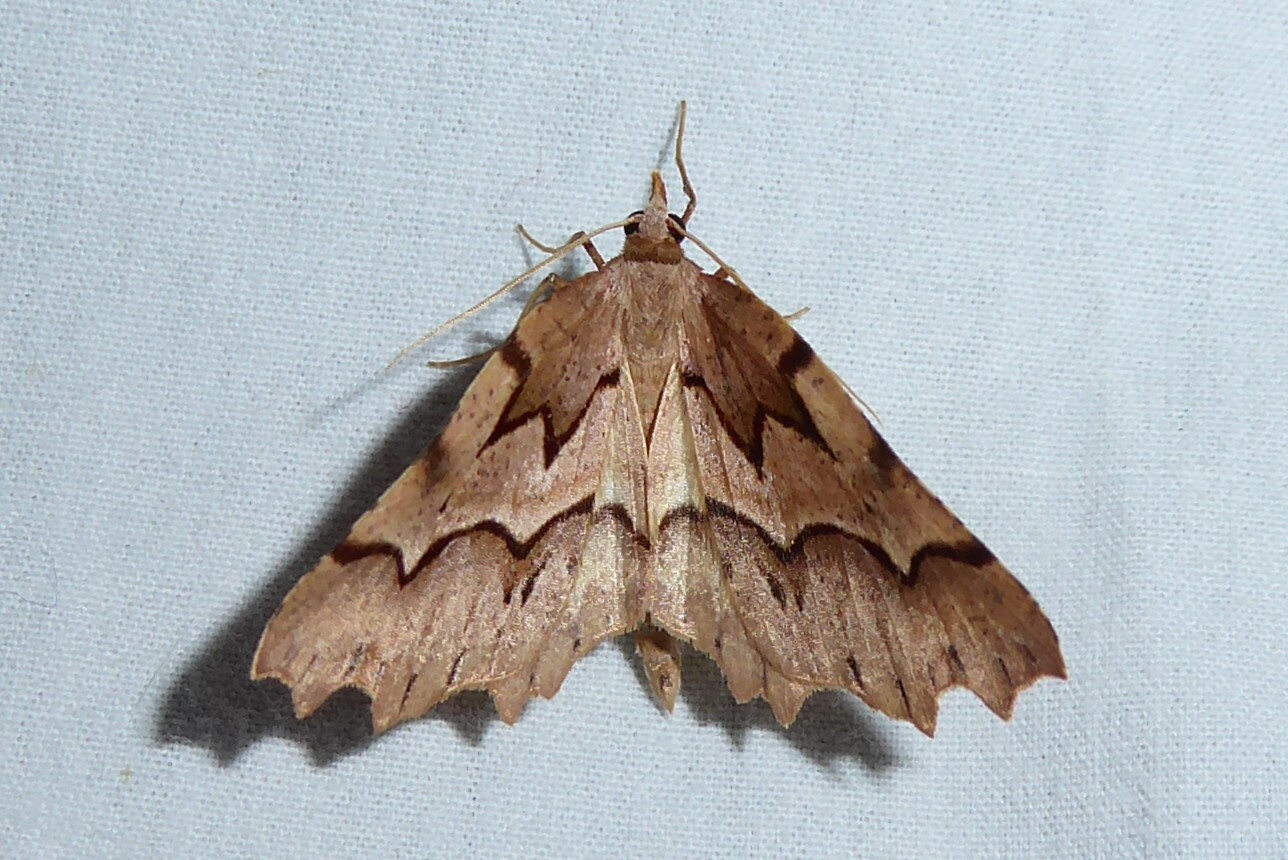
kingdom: Animalia
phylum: Arthropoda
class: Insecta
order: Lepidoptera
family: Geometridae
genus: Ischalis
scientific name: Ischalis fortinata
